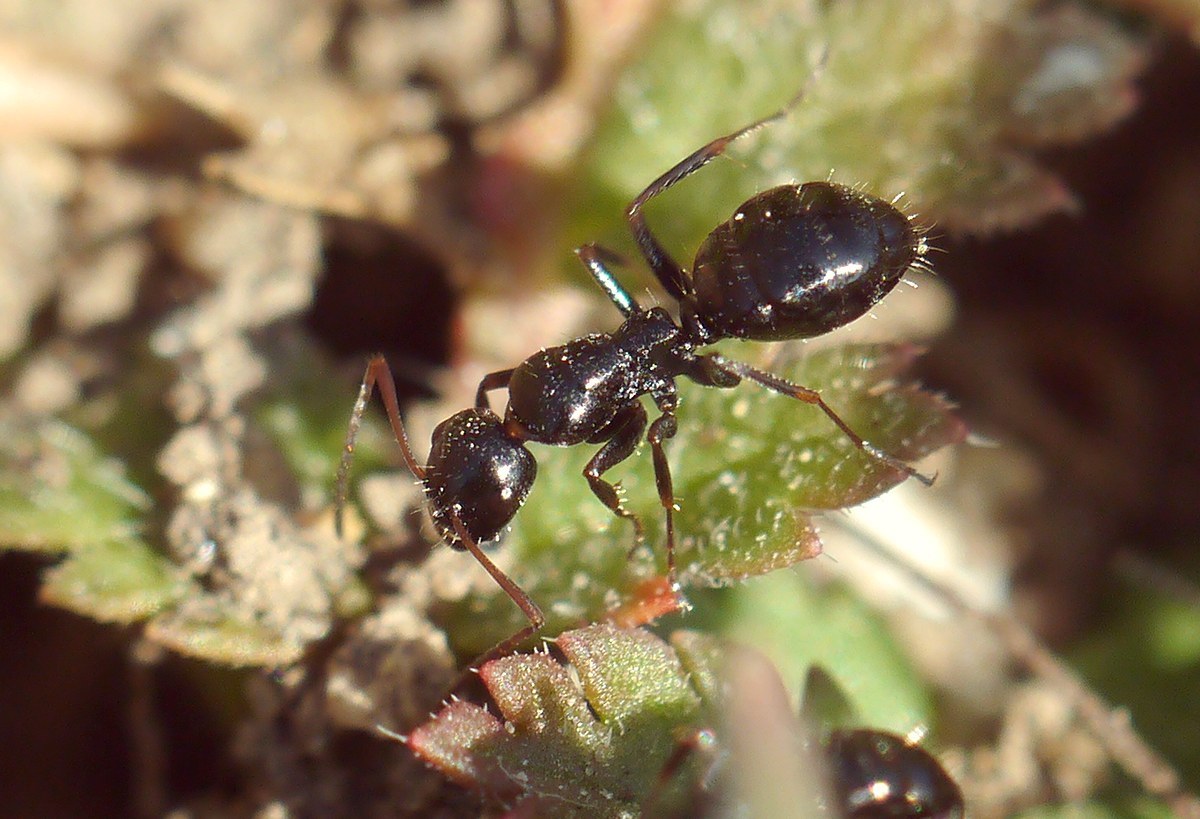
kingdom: Animalia
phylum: Arthropoda
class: Insecta
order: Hymenoptera
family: Formicidae
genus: Camponotus
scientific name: Camponotus piceus
